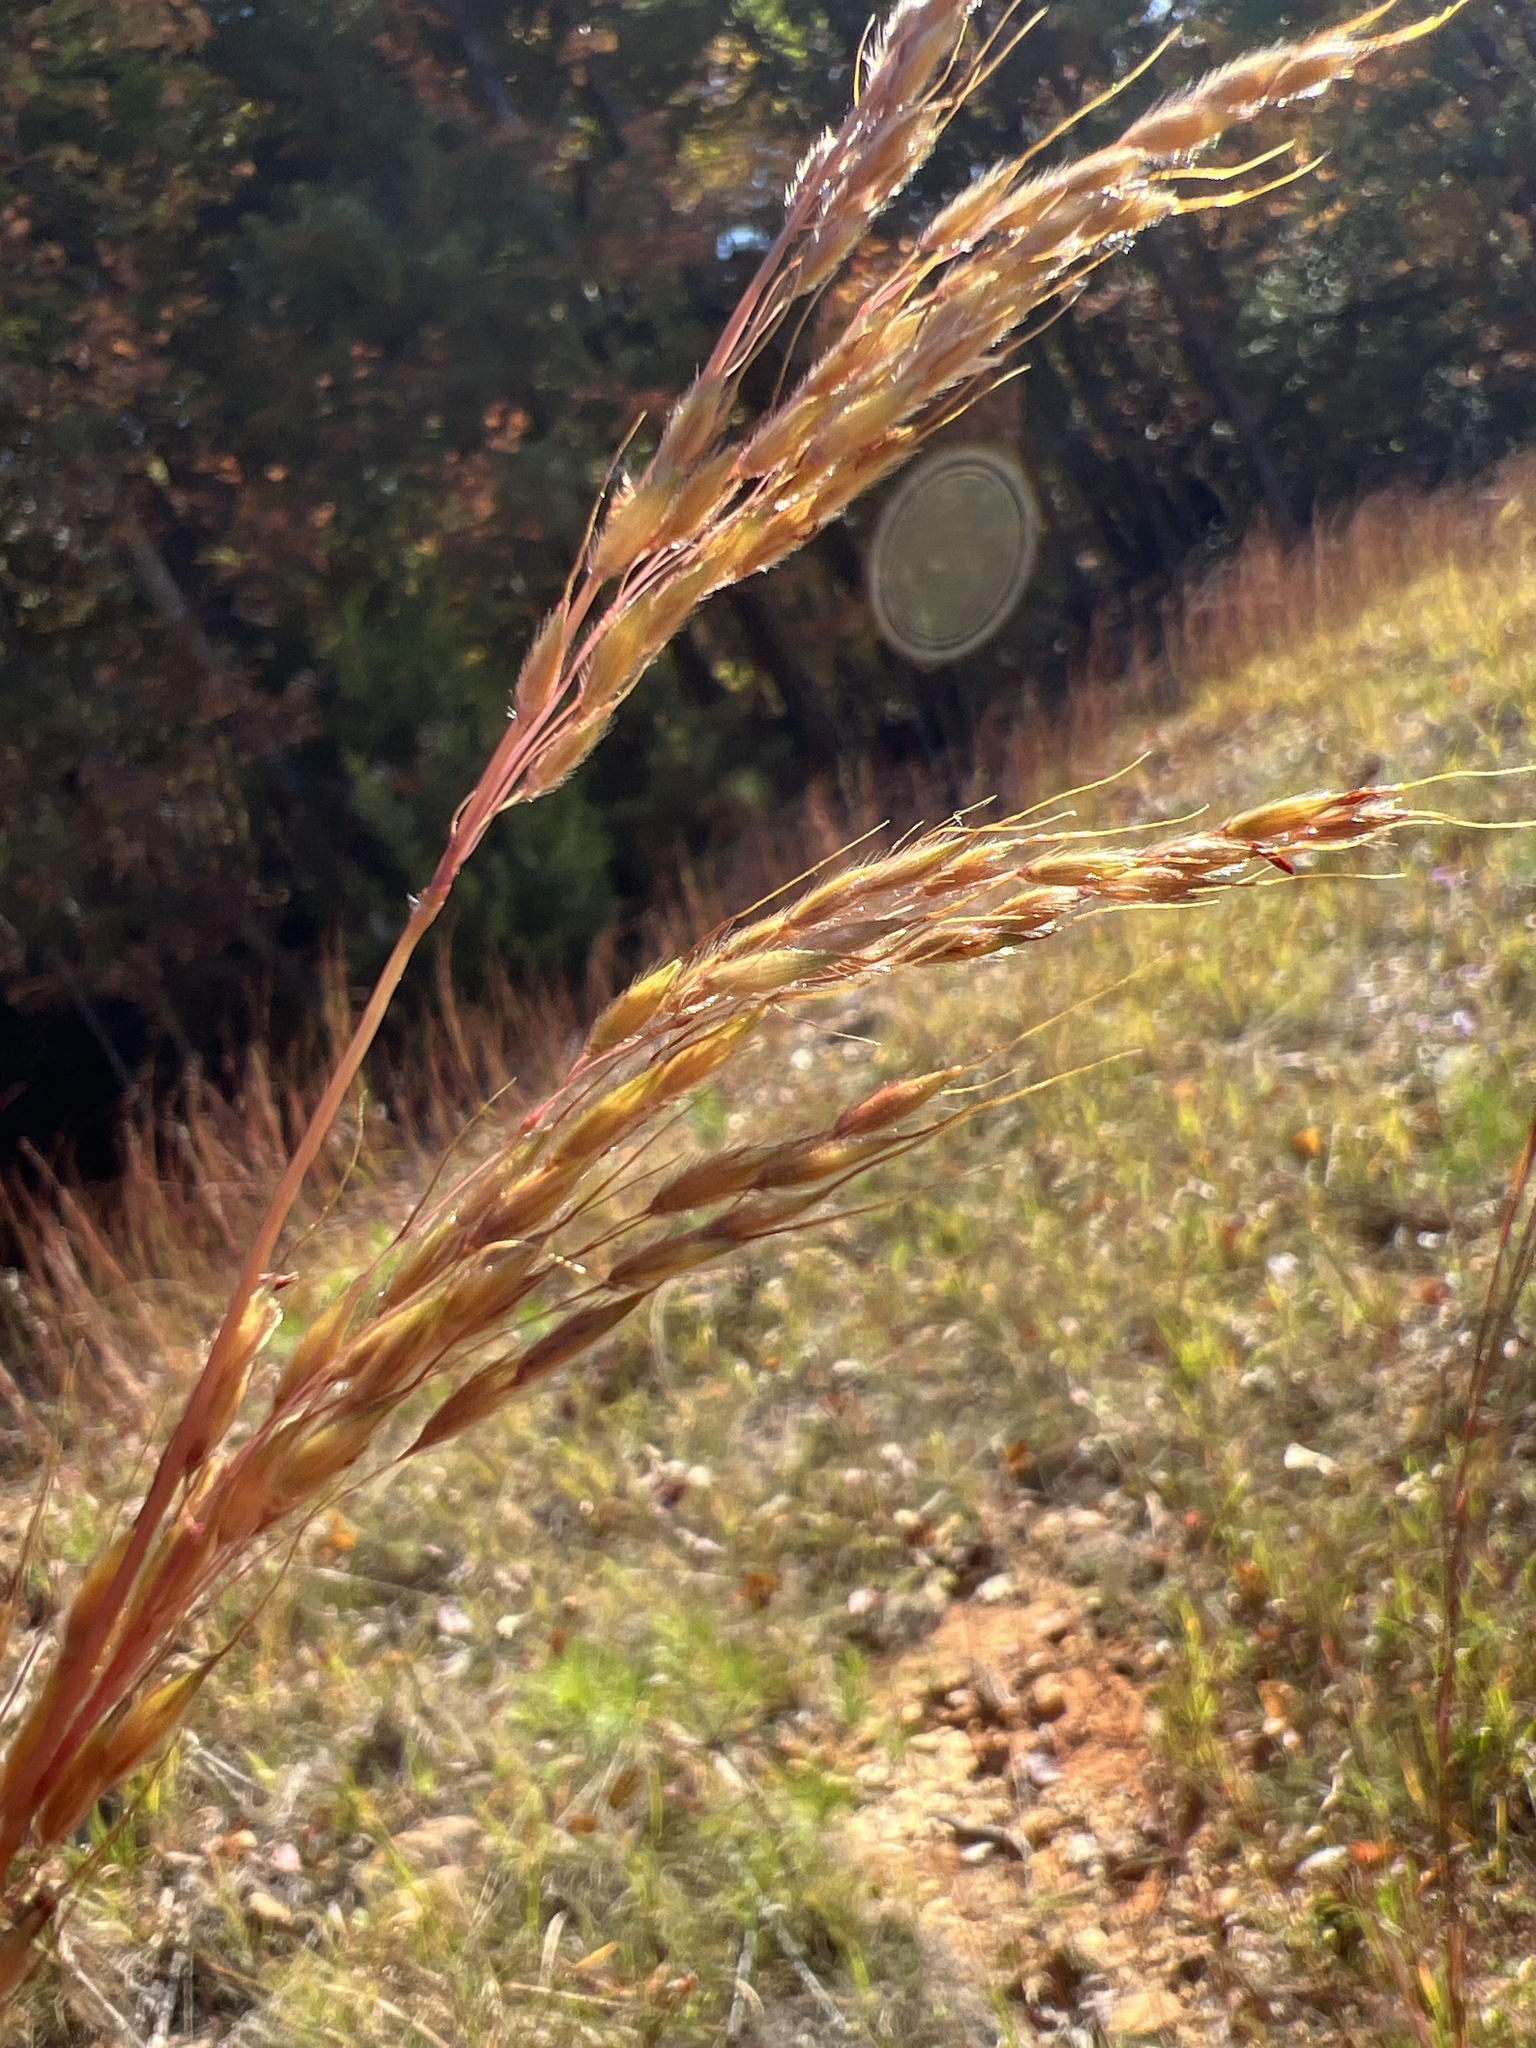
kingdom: Plantae
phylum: Tracheophyta
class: Liliopsida
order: Poales
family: Poaceae
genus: Sorghastrum
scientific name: Sorghastrum nutans
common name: Indian grass
